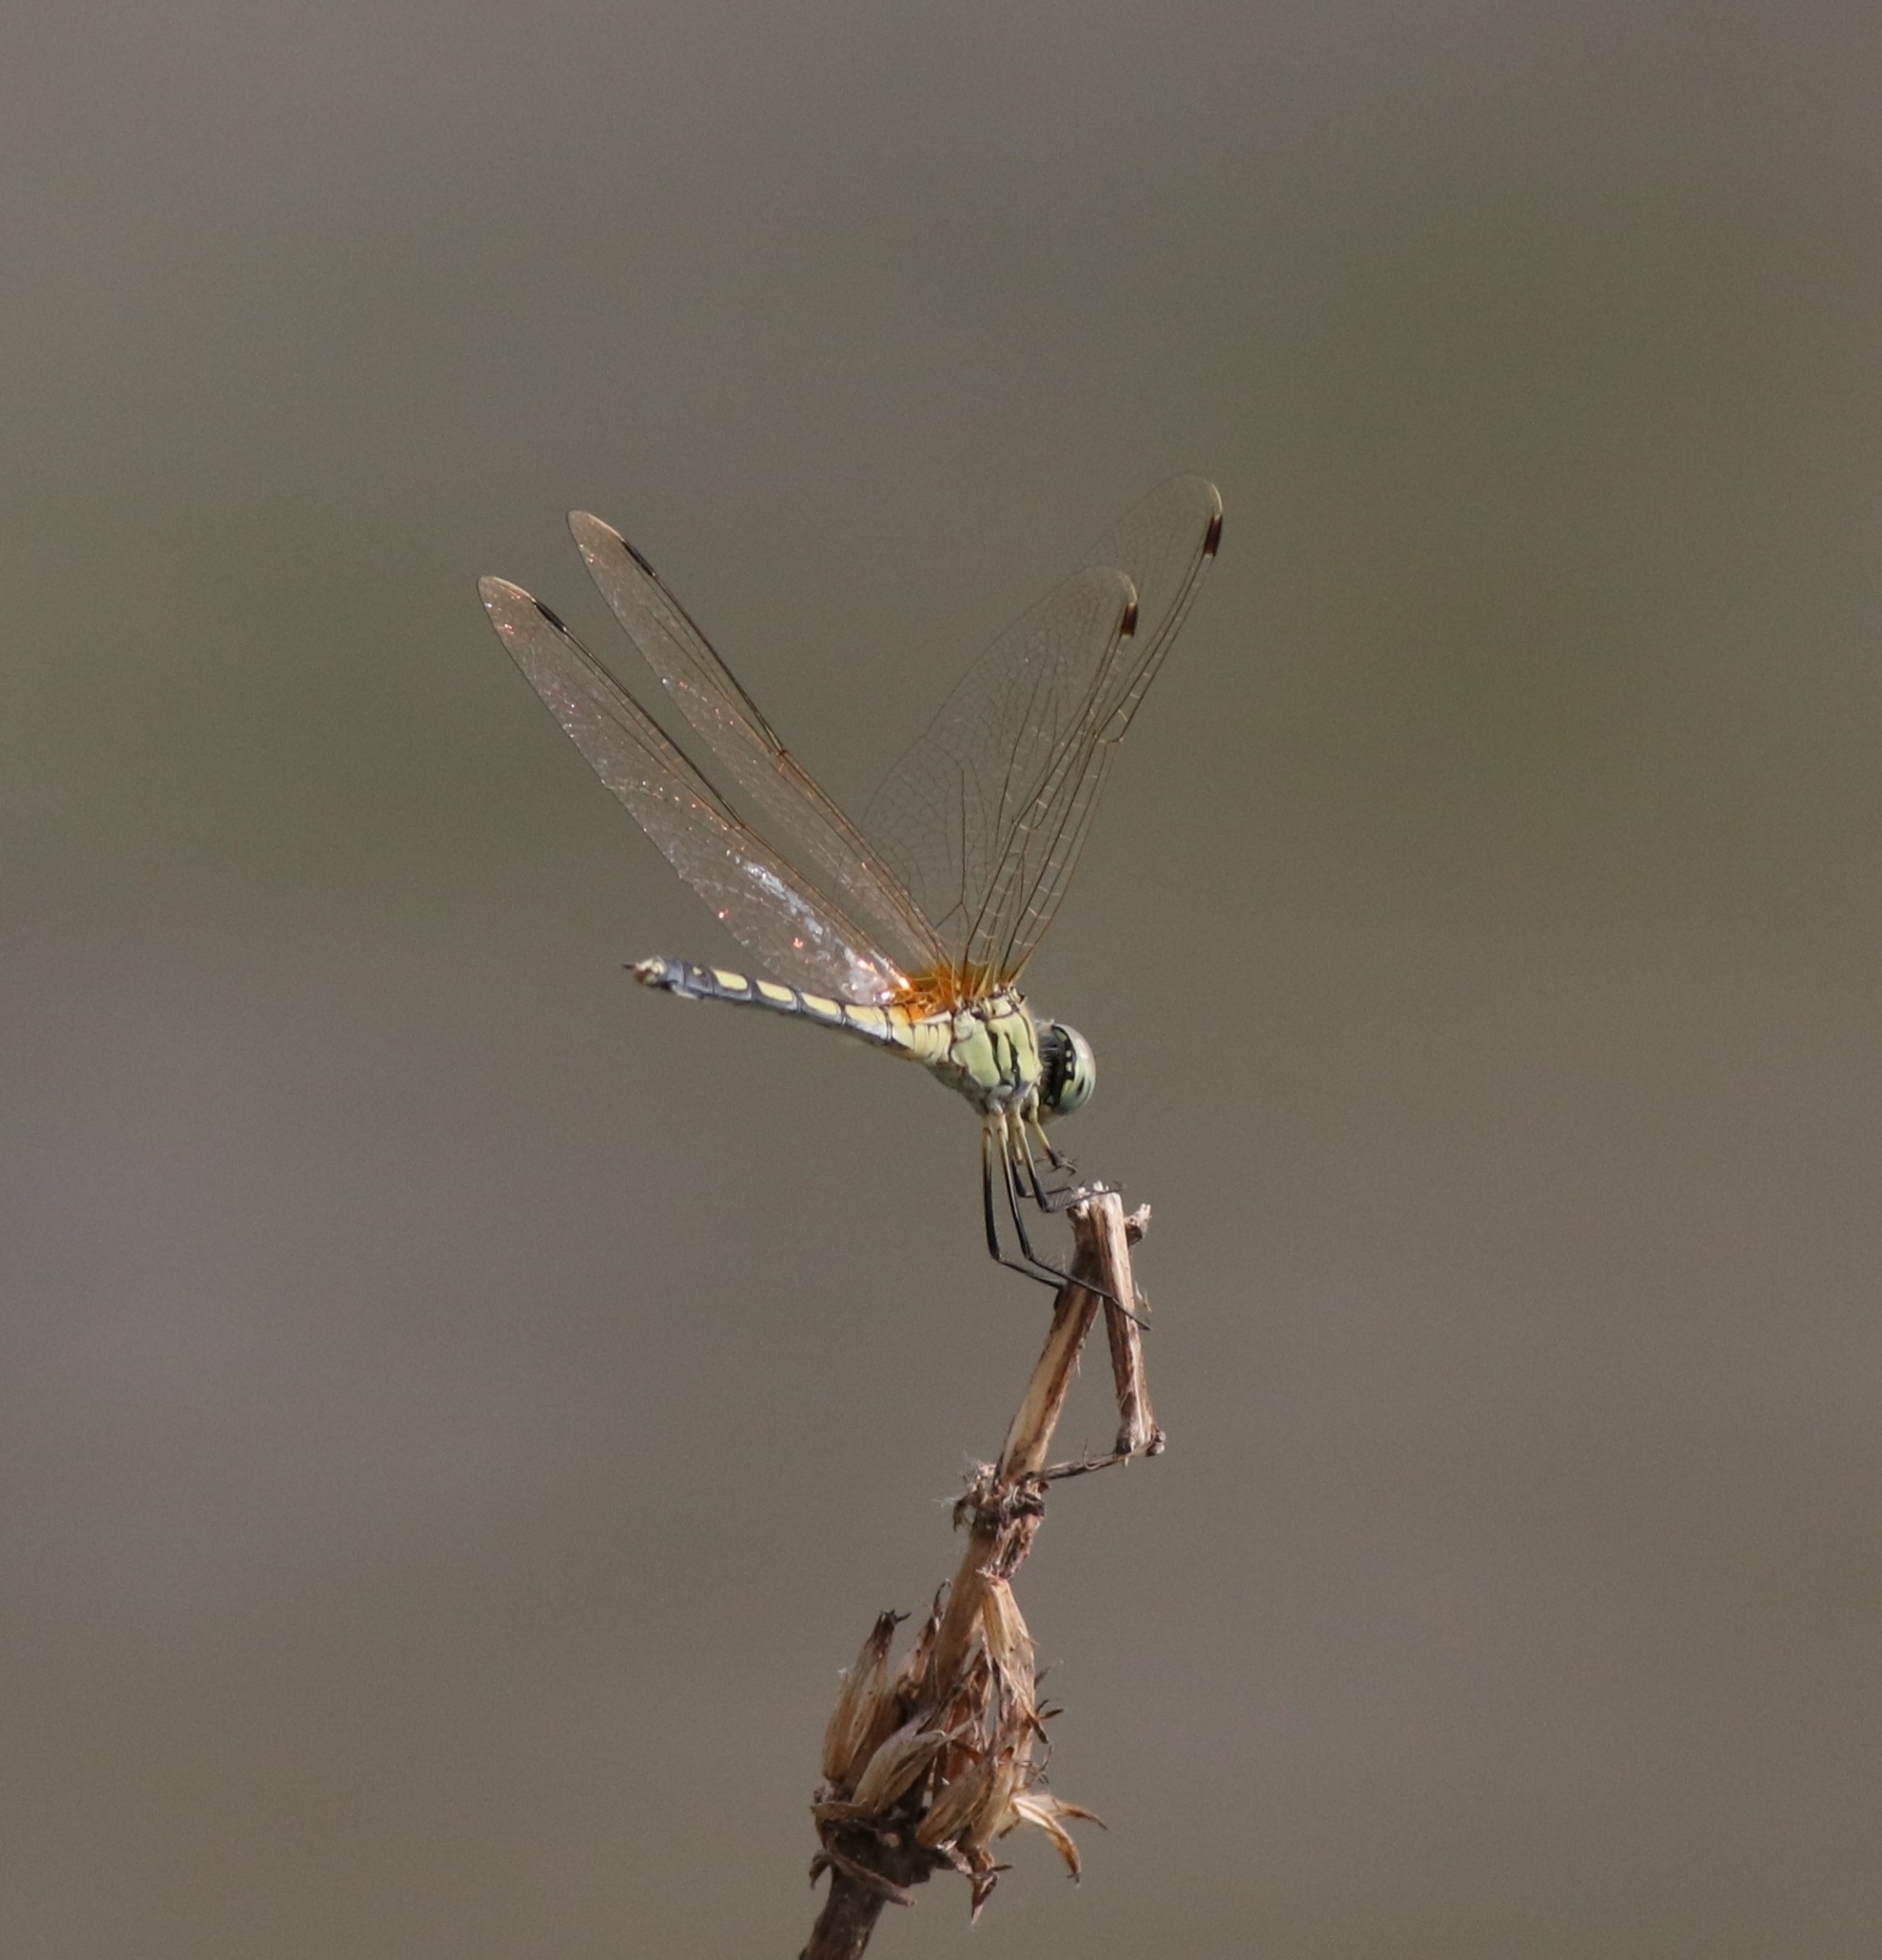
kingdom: Animalia
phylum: Arthropoda
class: Insecta
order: Odonata
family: Libellulidae
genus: Trithemis
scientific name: Trithemis pallidinervis
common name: Dancing dropwing
